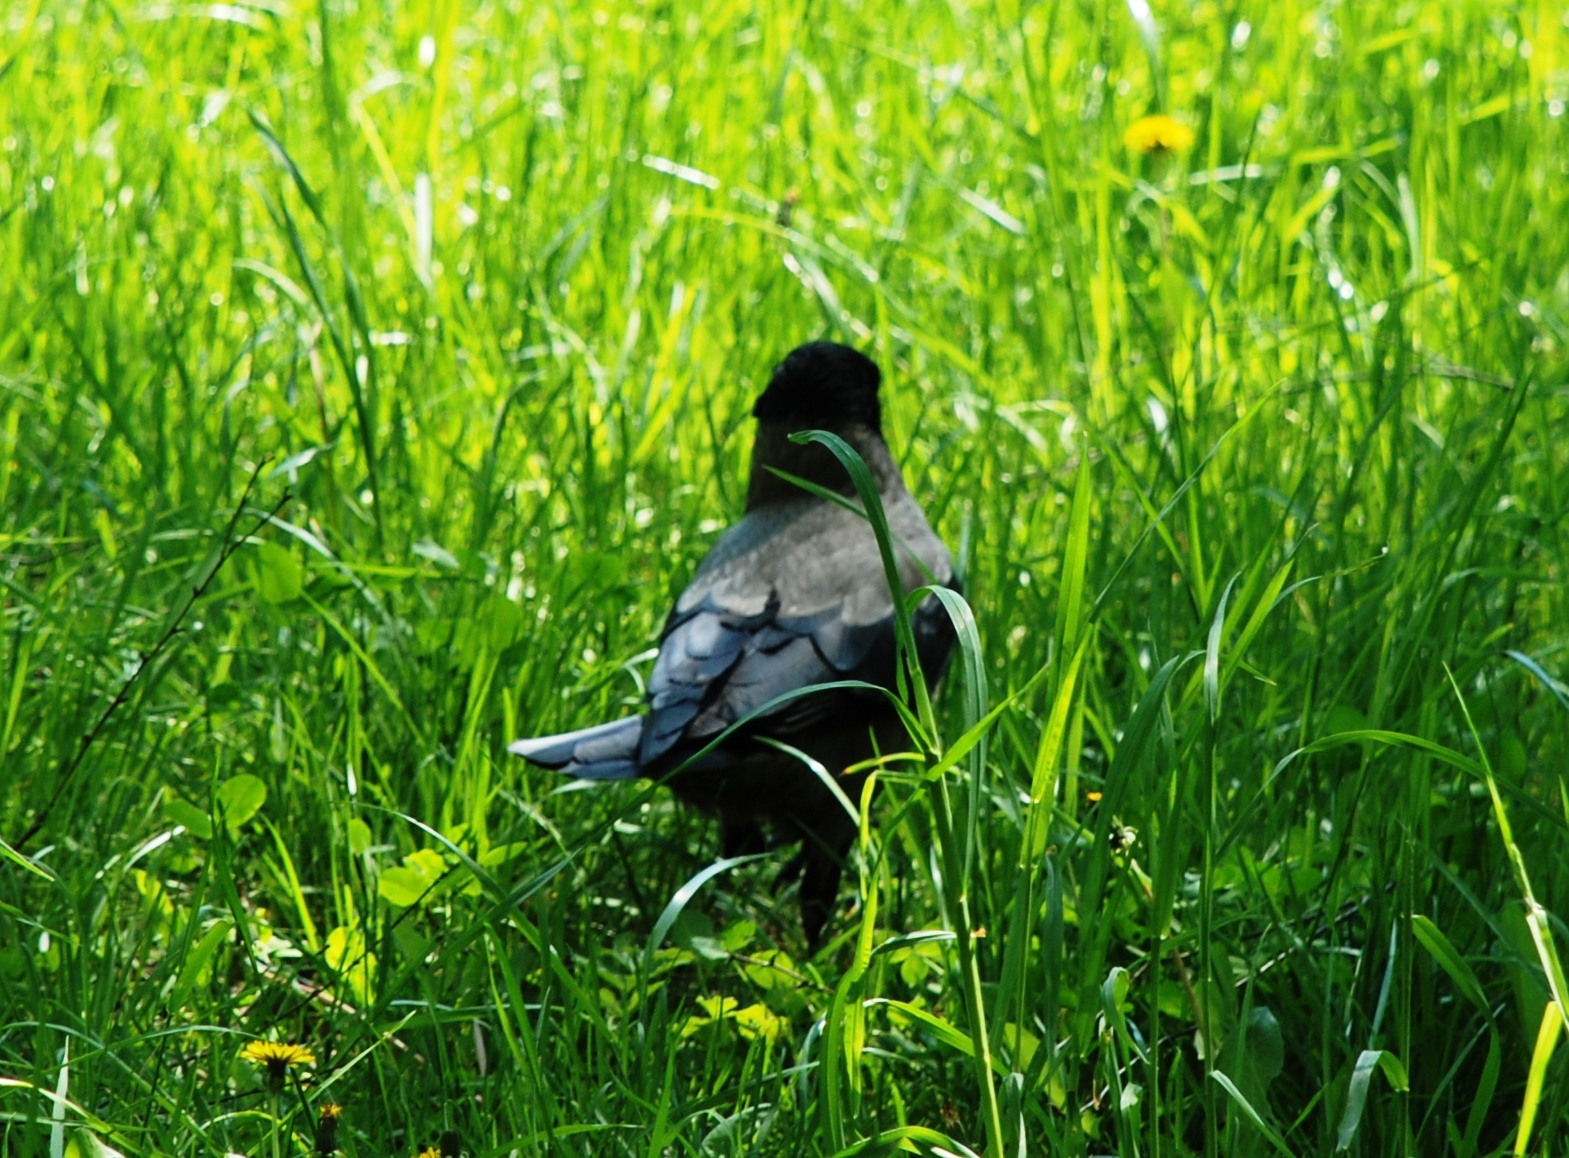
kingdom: Animalia
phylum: Chordata
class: Aves
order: Passeriformes
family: Corvidae
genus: Corvus
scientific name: Corvus cornix
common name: Hooded crow
